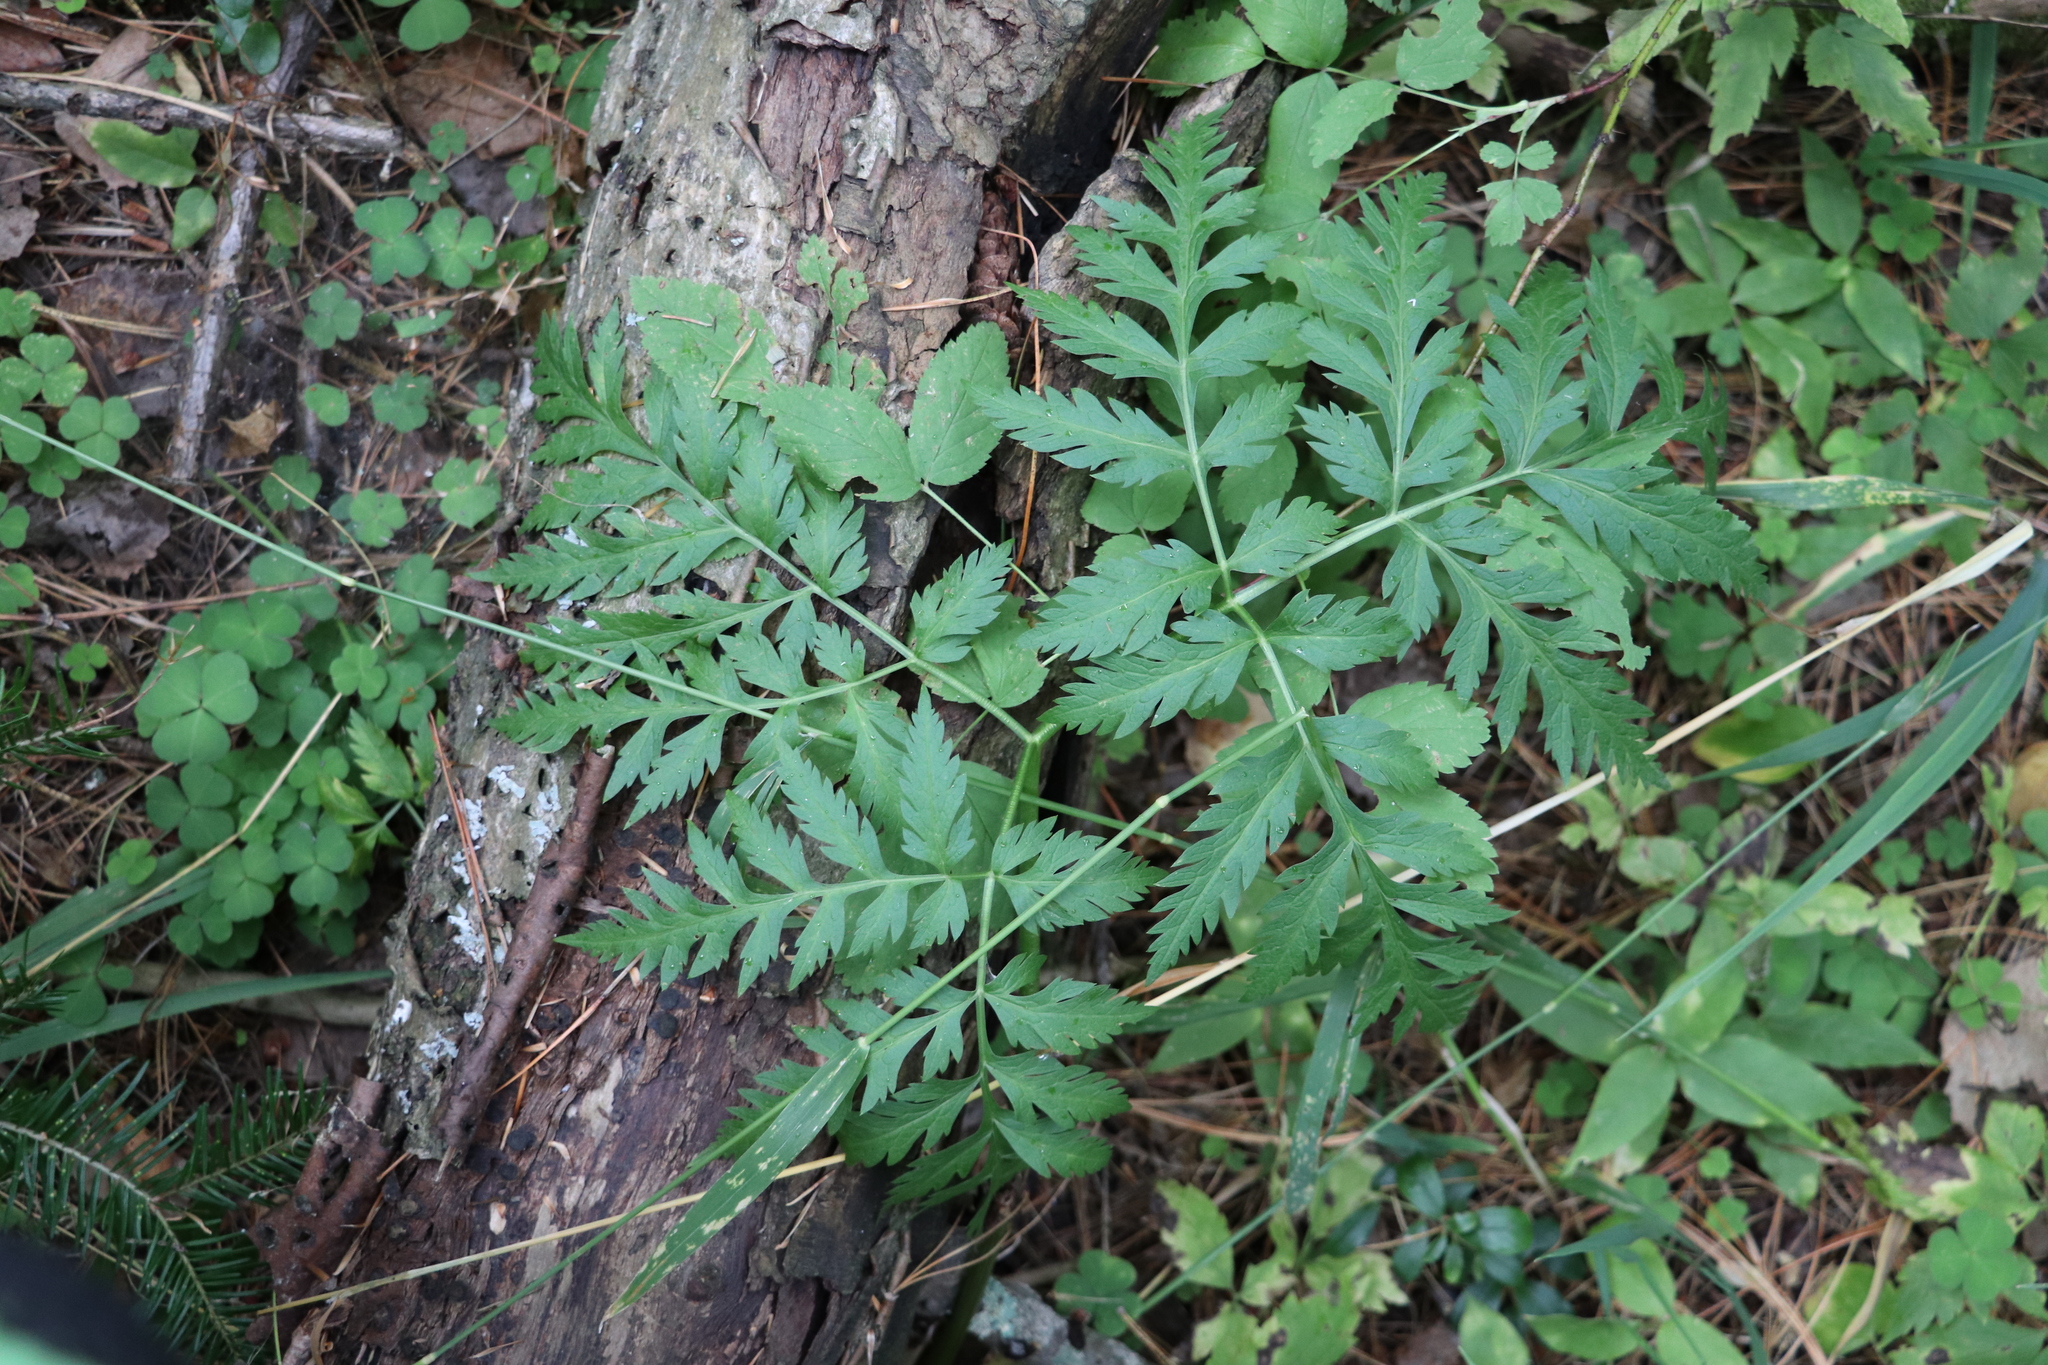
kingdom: Plantae
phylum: Tracheophyta
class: Magnoliopsida
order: Apiales
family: Apiaceae
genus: Pleurospermum
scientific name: Pleurospermum uralense
